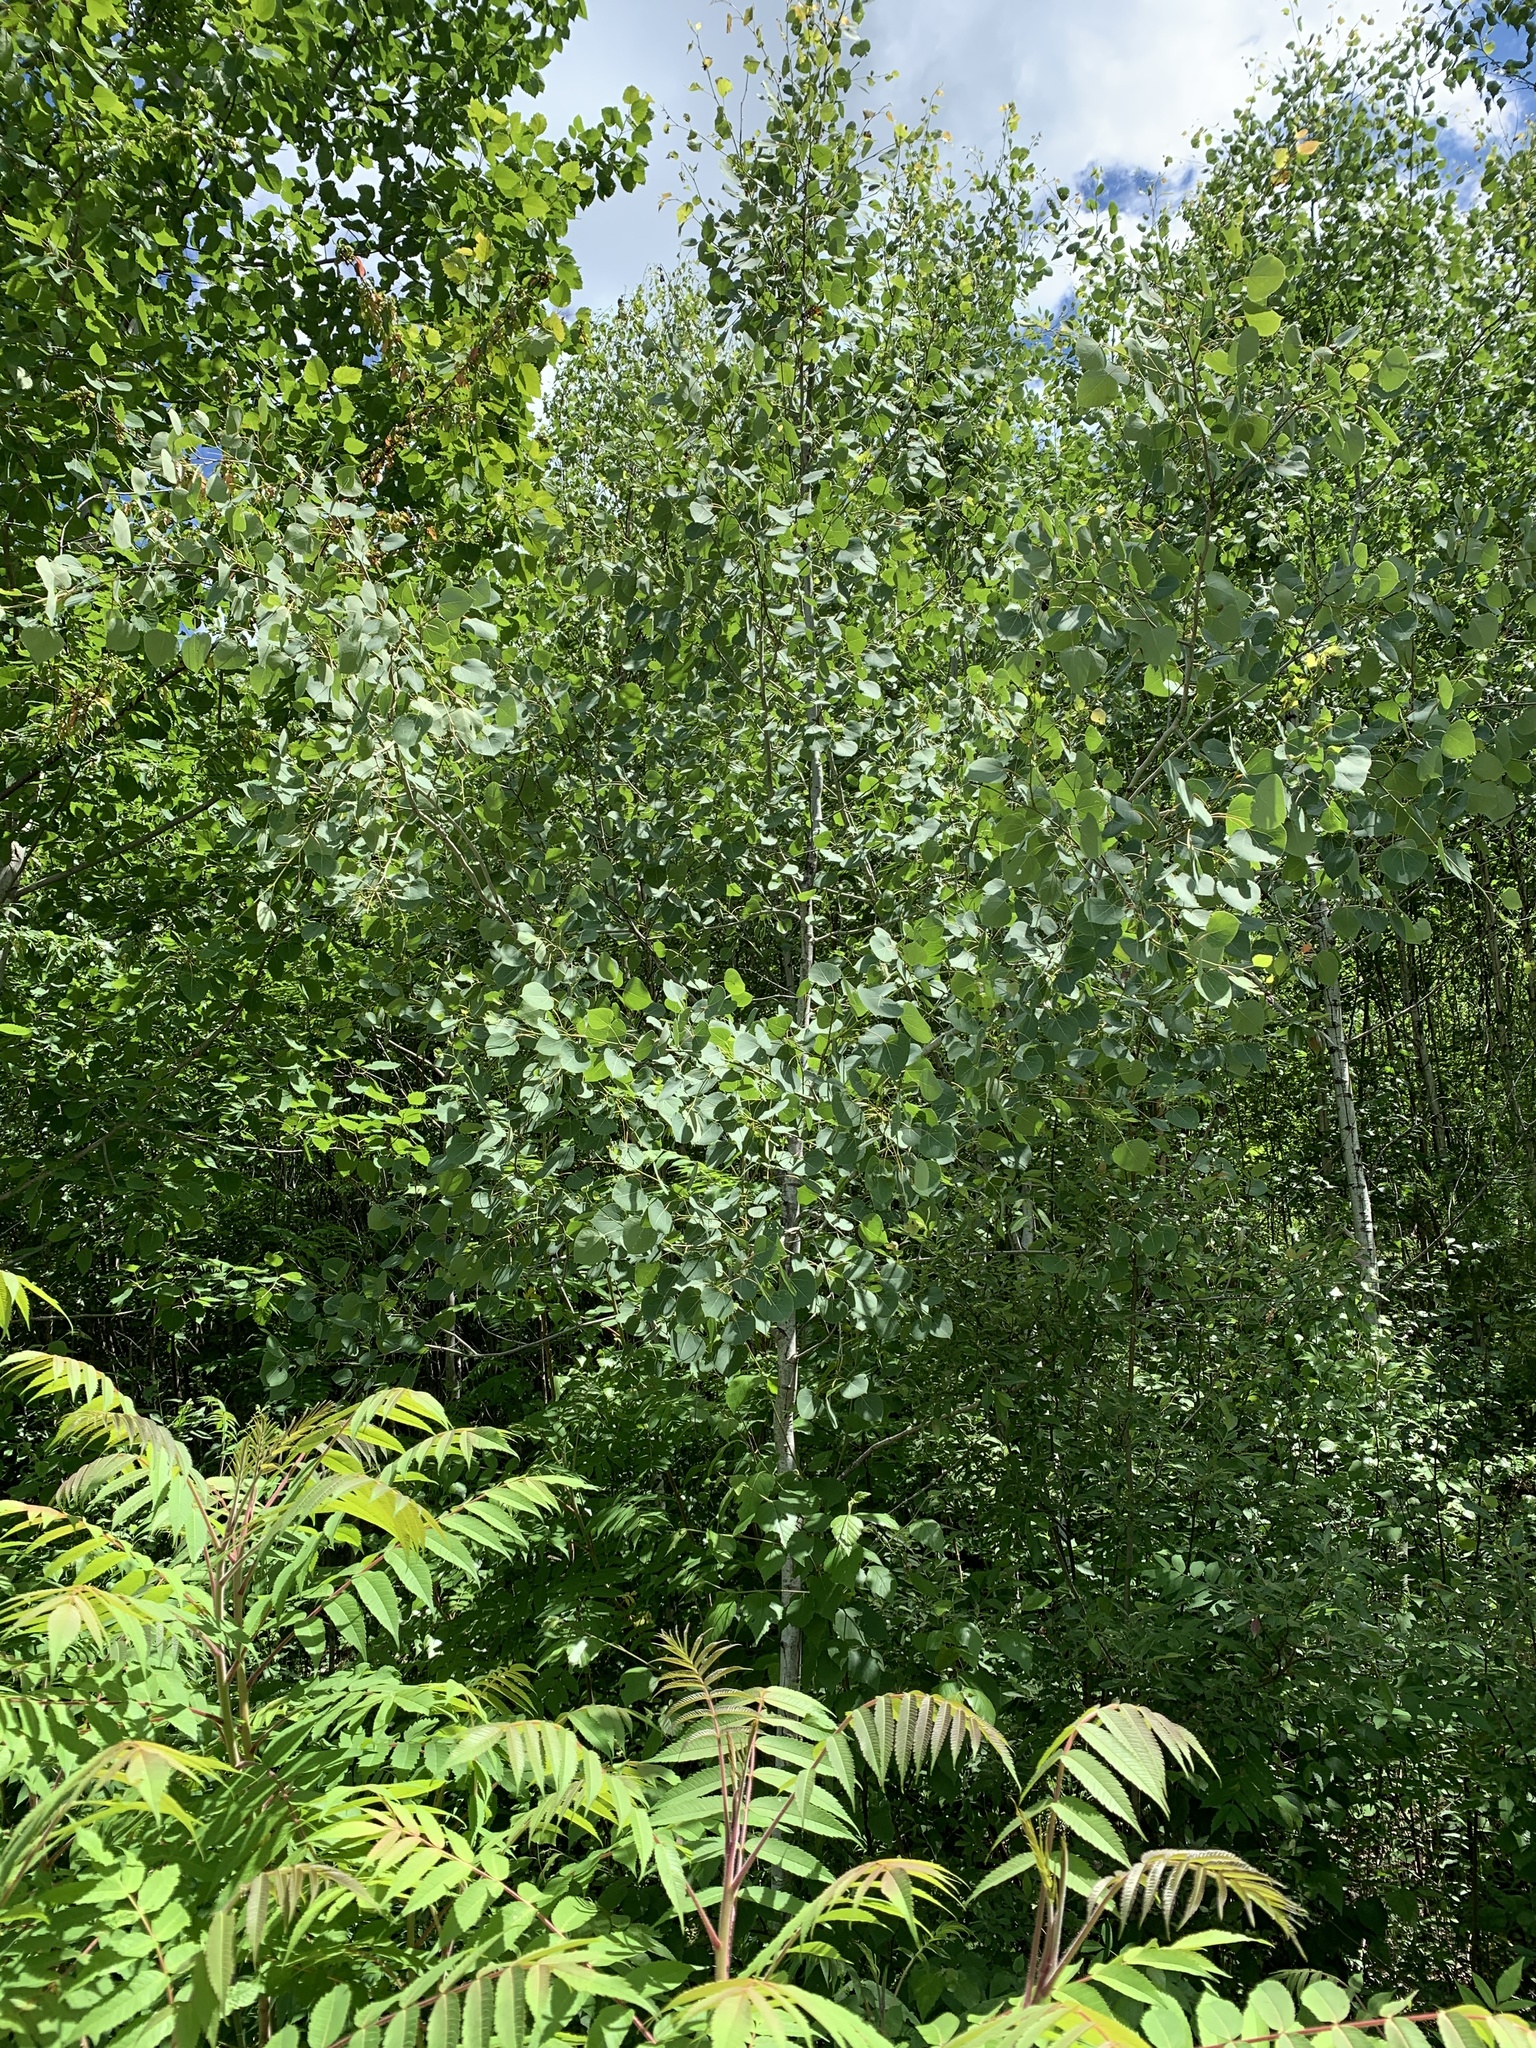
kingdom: Plantae
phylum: Tracheophyta
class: Magnoliopsida
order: Malpighiales
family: Salicaceae
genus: Populus
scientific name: Populus tremuloides
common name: Quaking aspen
